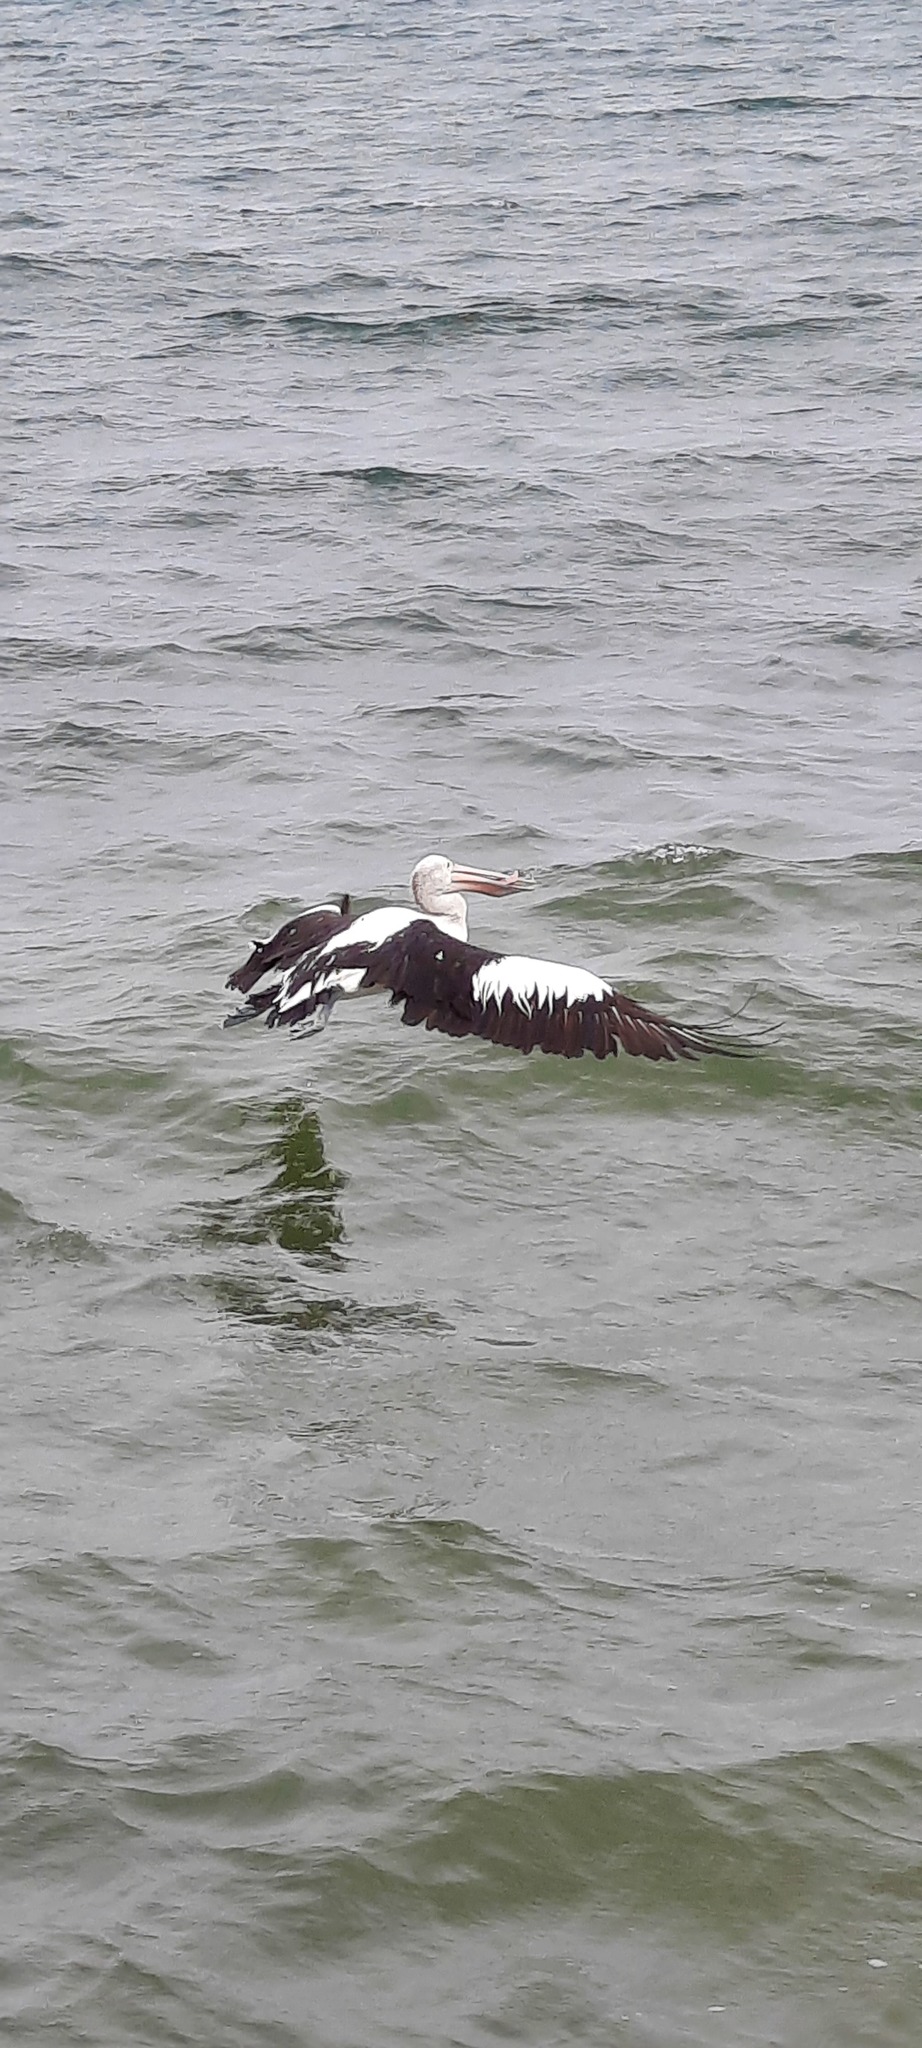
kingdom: Animalia
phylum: Chordata
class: Aves
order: Pelecaniformes
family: Pelecanidae
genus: Pelecanus
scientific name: Pelecanus conspicillatus
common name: Australian pelican
